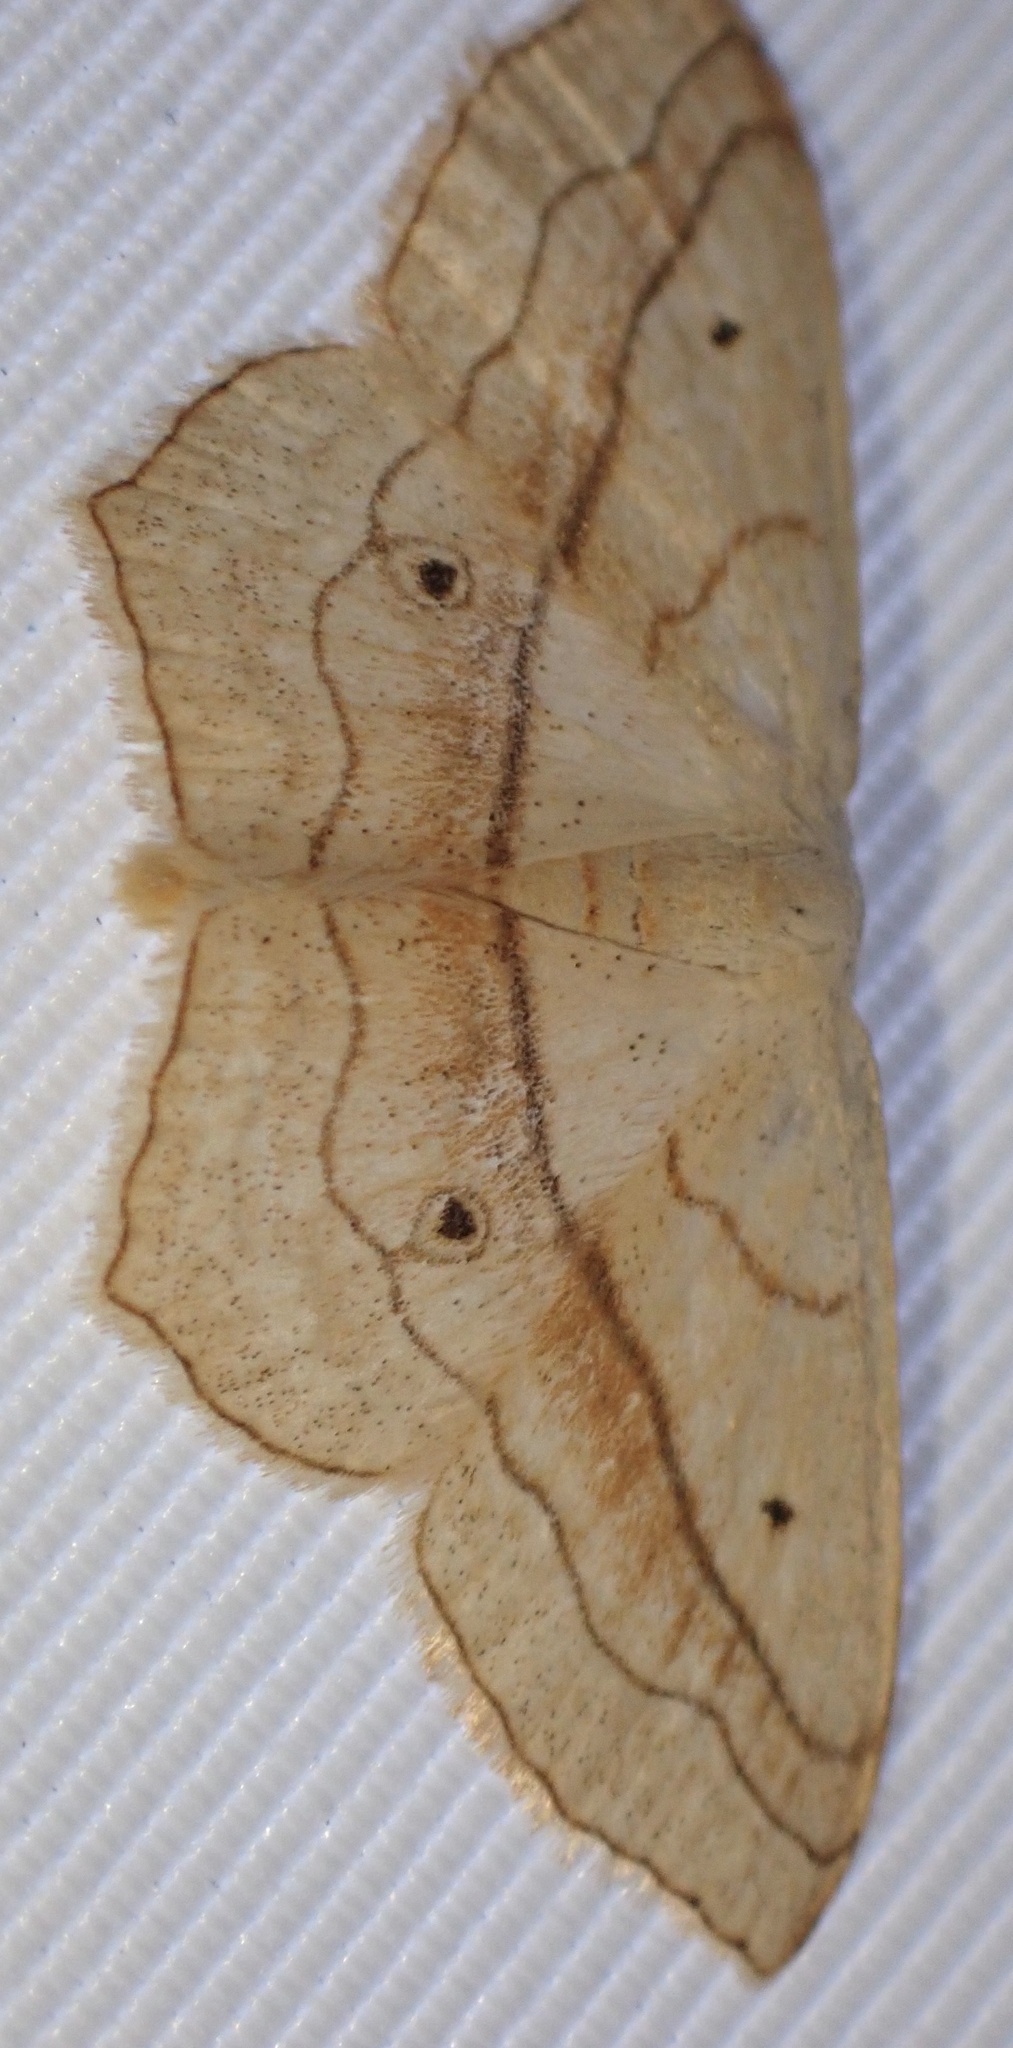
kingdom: Animalia
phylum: Arthropoda
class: Insecta
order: Lepidoptera
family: Geometridae
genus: Scopula
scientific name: Scopula imitaria
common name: Small blood-vein
